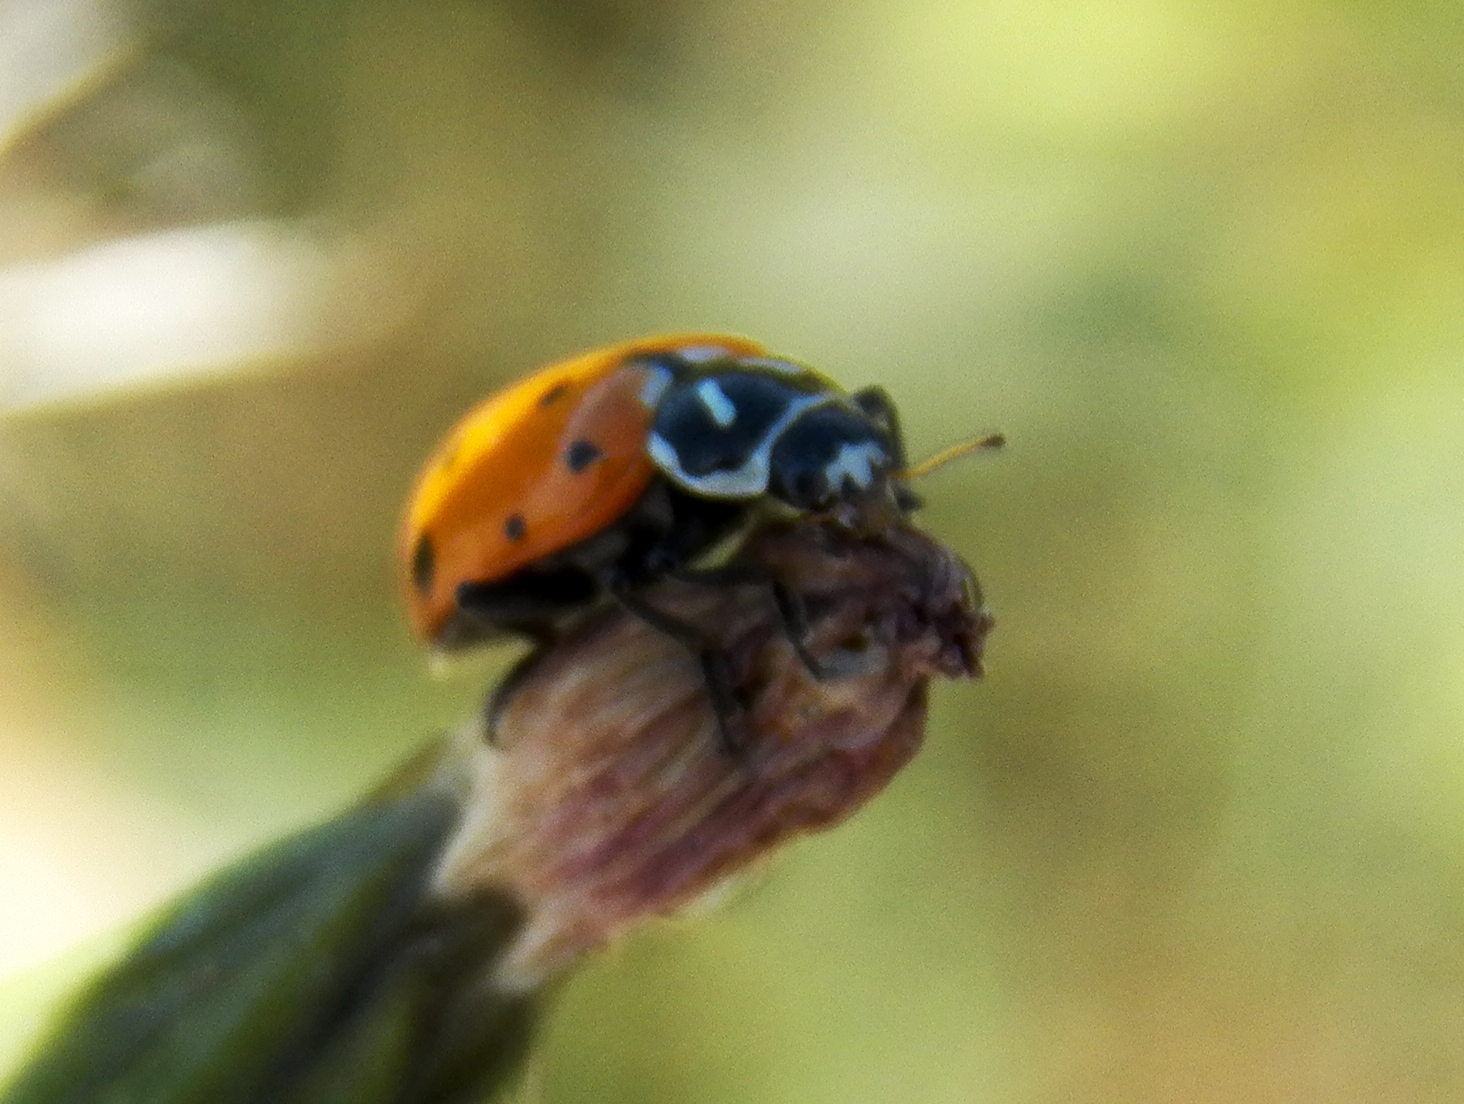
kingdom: Animalia
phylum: Arthropoda
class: Insecta
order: Coleoptera
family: Coccinellidae
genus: Hippodamia
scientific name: Hippodamia convergens
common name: Convergent lady beetle
